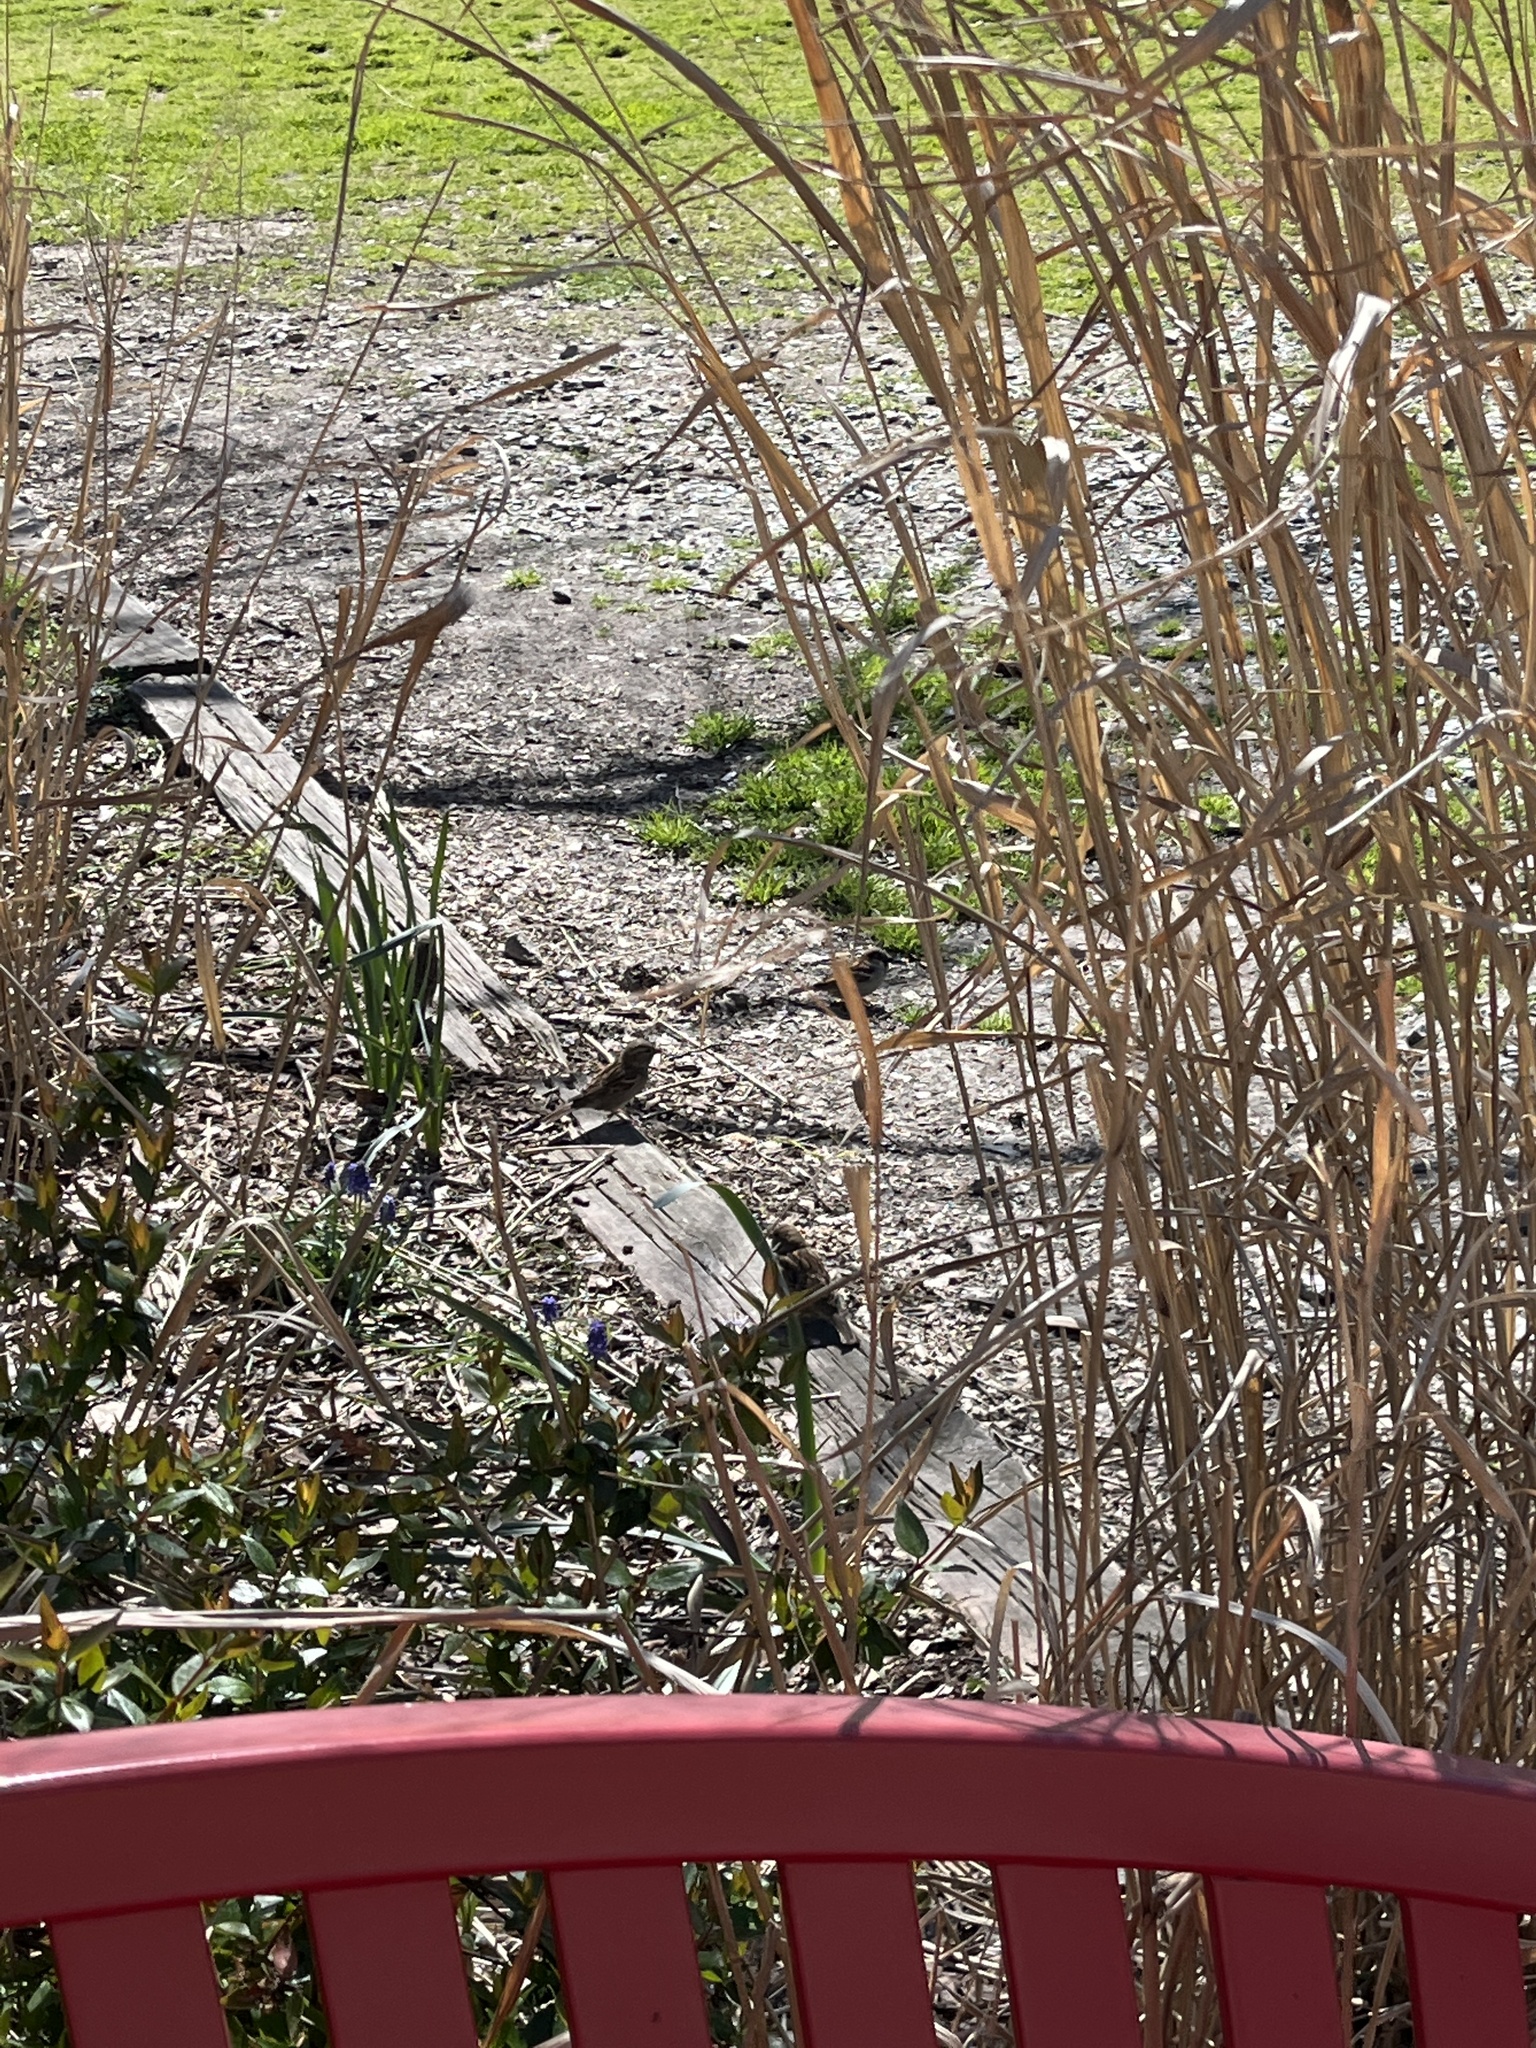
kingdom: Animalia
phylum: Chordata
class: Aves
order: Passeriformes
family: Passeridae
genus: Passer
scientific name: Passer domesticus
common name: House sparrow
